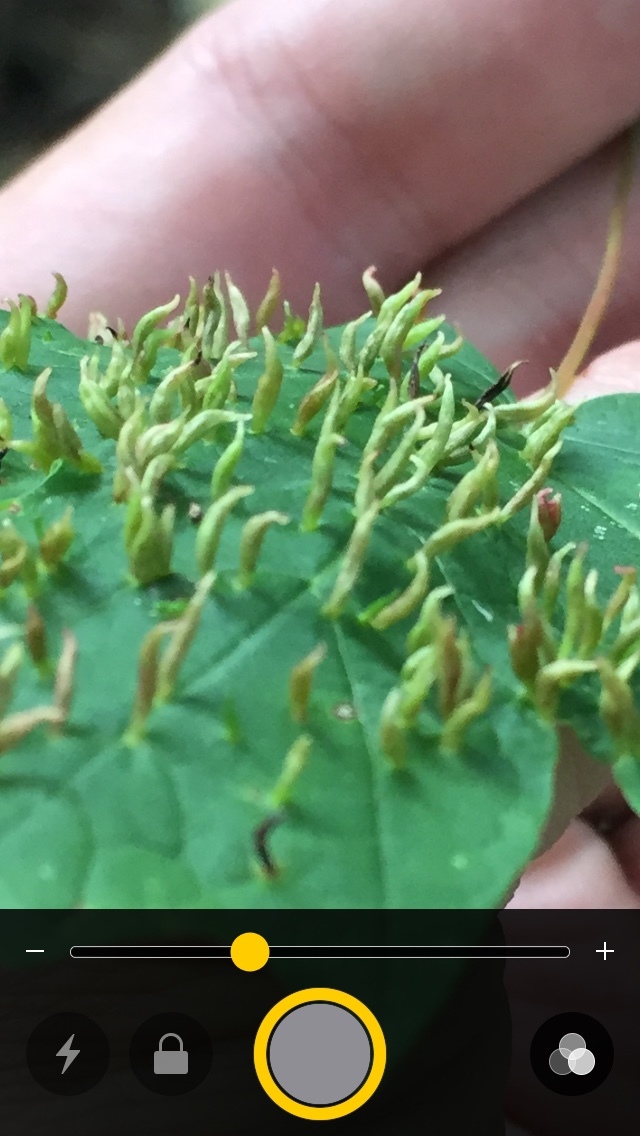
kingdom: Animalia
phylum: Arthropoda
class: Arachnida
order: Trombidiformes
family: Eriophyidae
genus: Vasates
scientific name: Vasates aceriscrumena
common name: Maple spindle gall mite
